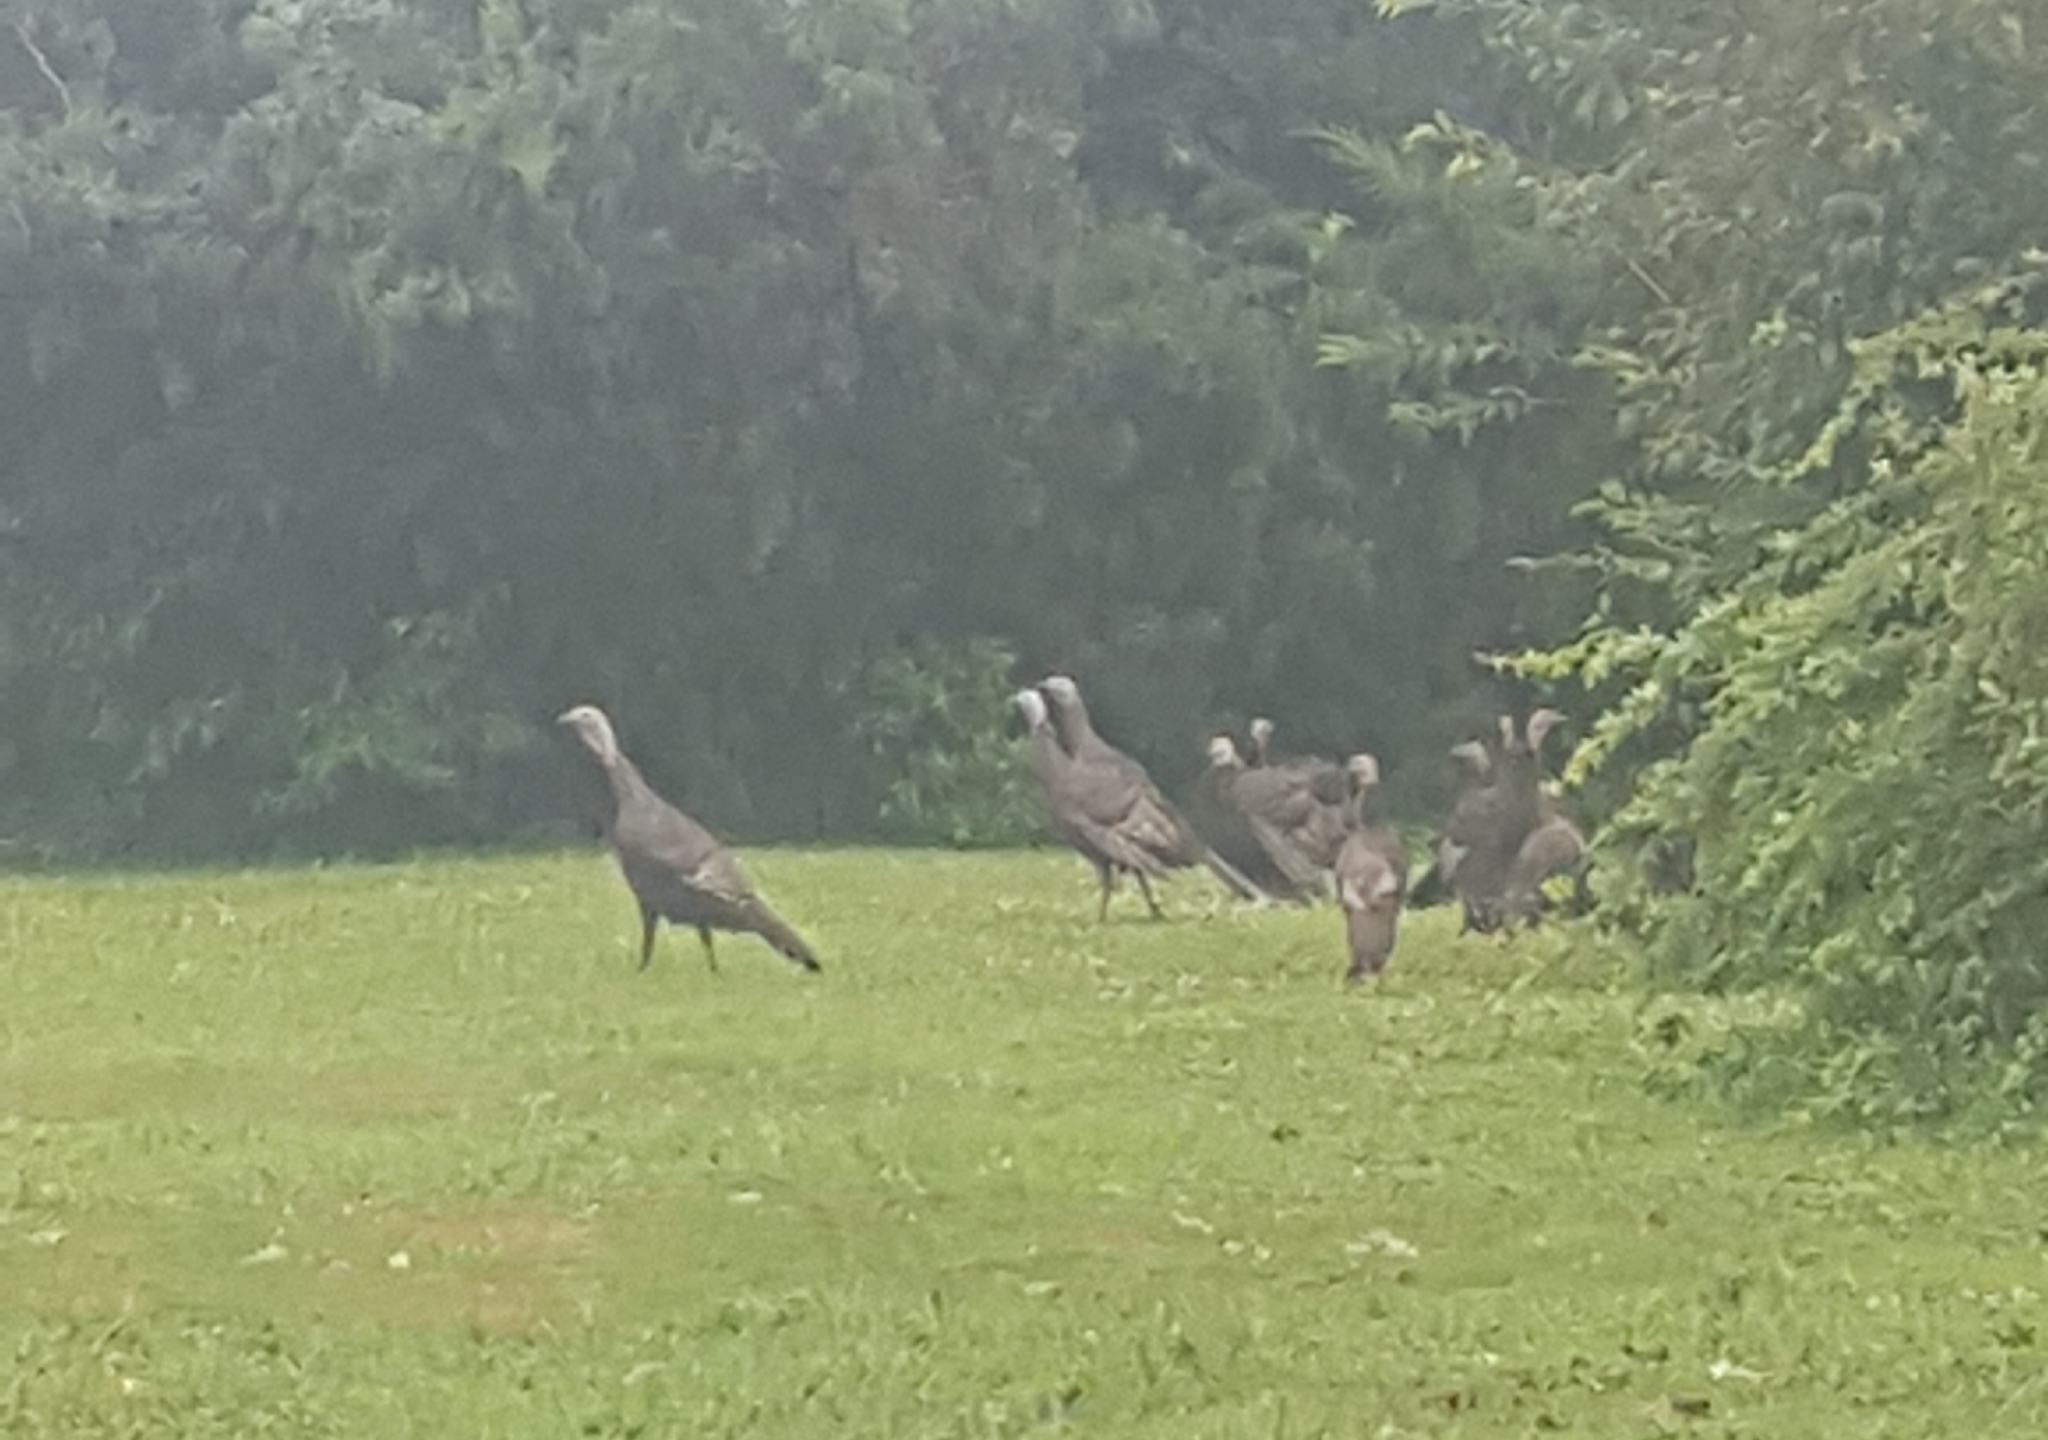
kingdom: Animalia
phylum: Chordata
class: Aves
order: Galliformes
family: Phasianidae
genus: Meleagris
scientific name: Meleagris gallopavo
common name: Wild turkey
